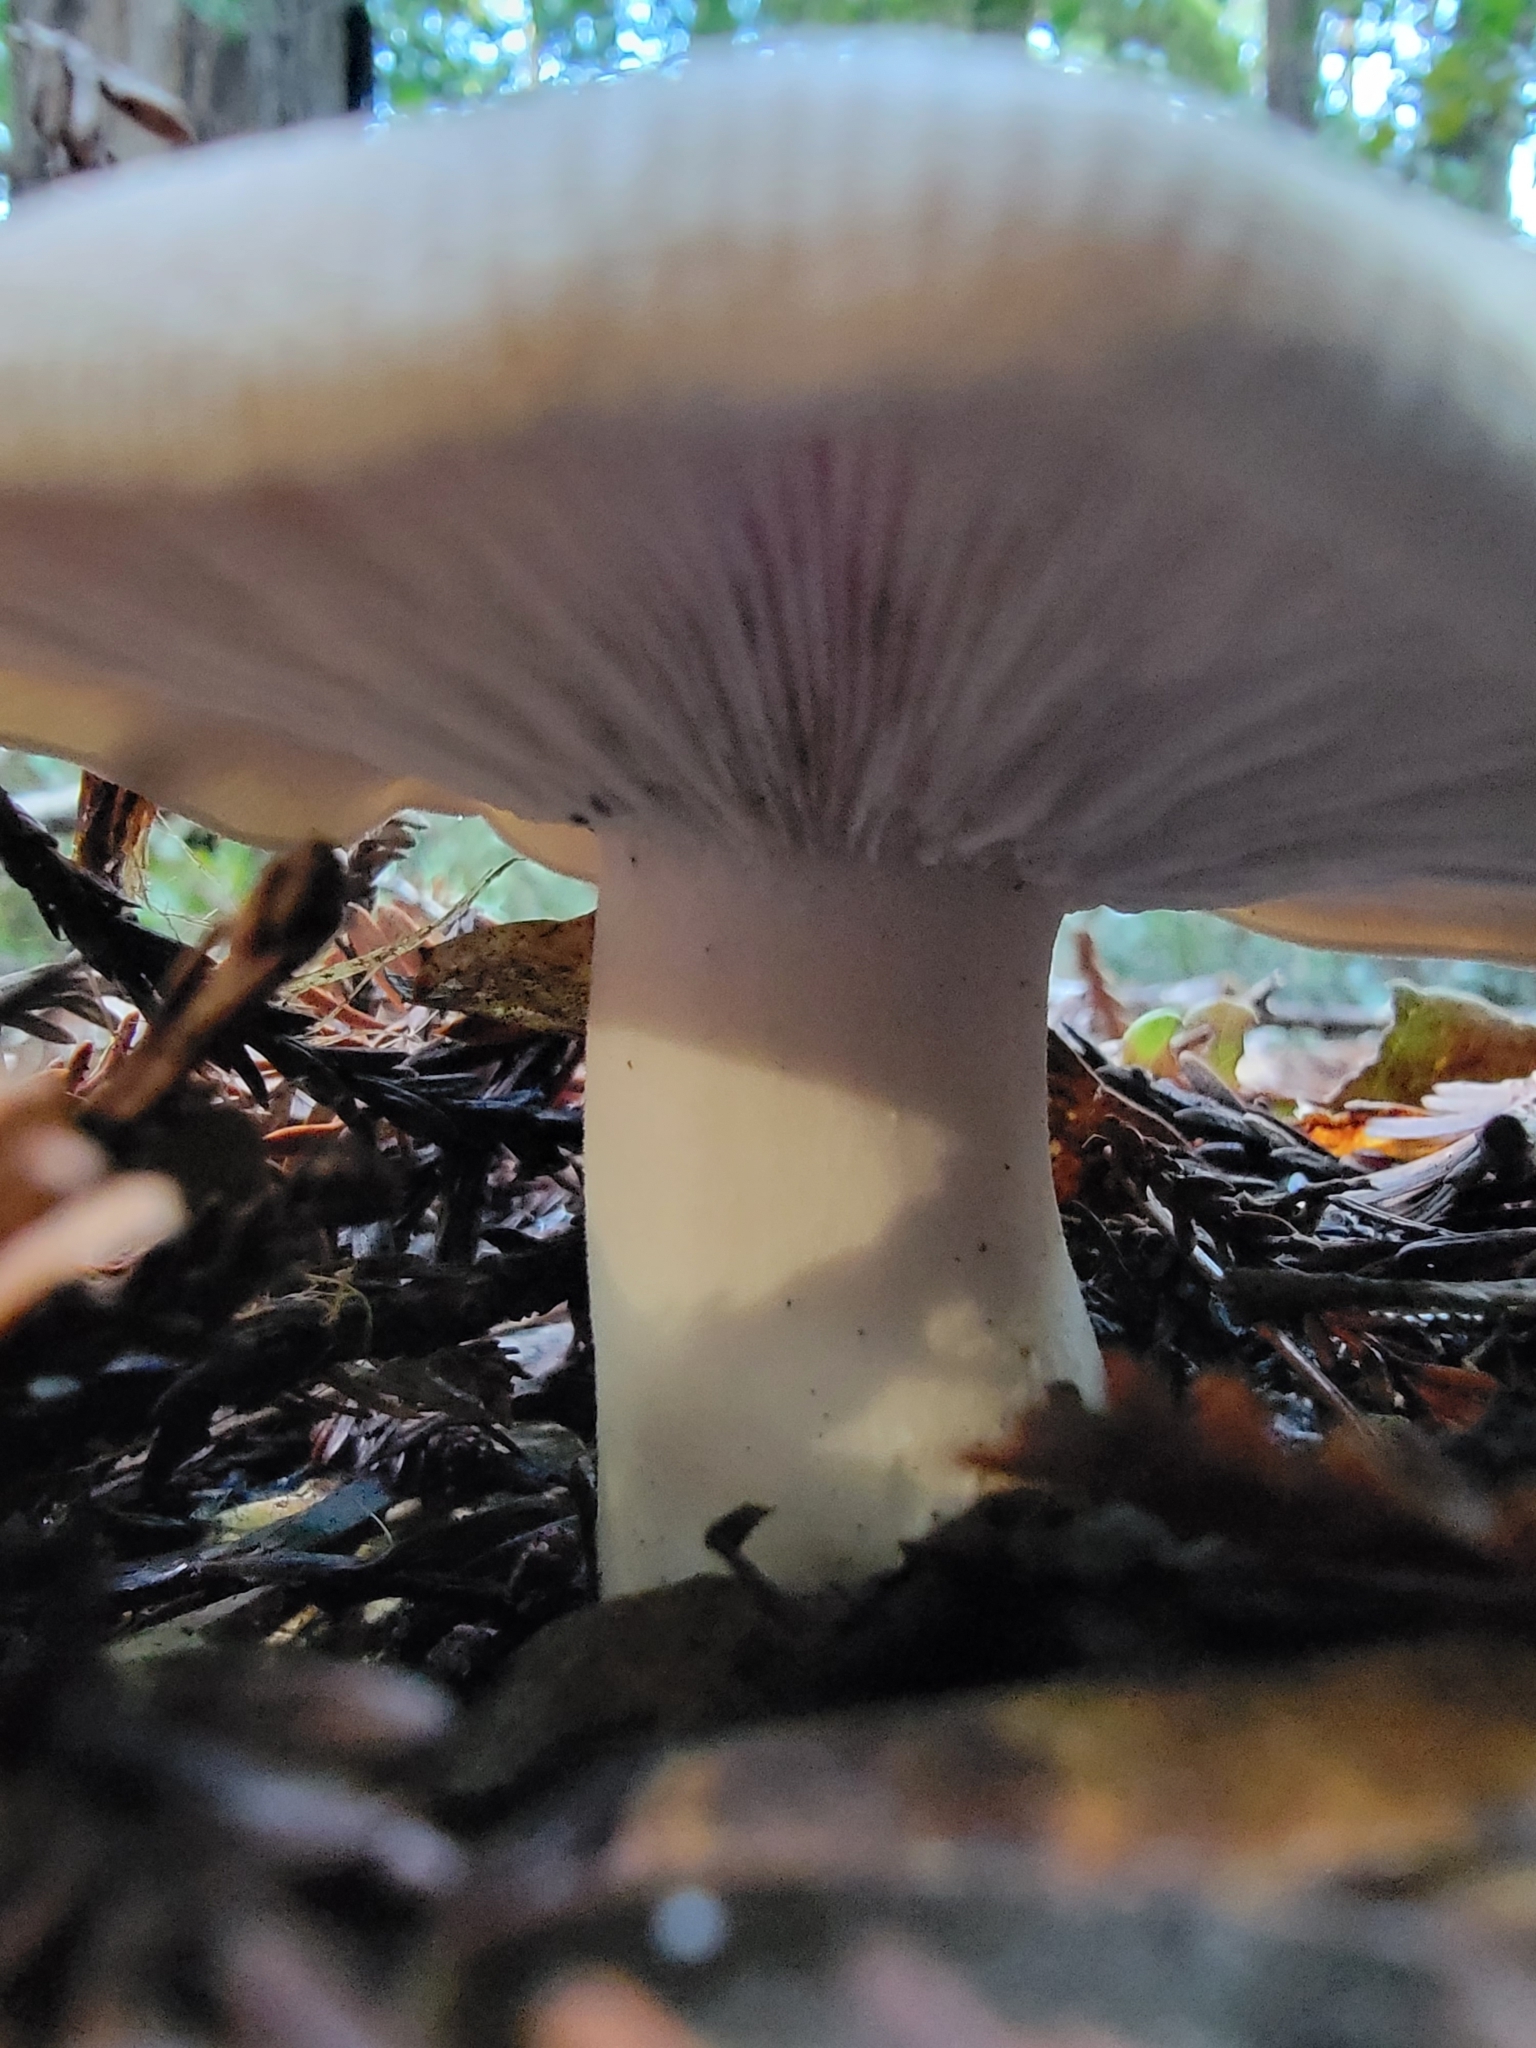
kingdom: Fungi
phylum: Basidiomycota
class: Agaricomycetes
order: Agaricales
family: Tricholomataceae
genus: Leucopaxillus
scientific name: Leucopaxillus gentianeus
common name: Bitter funnel
